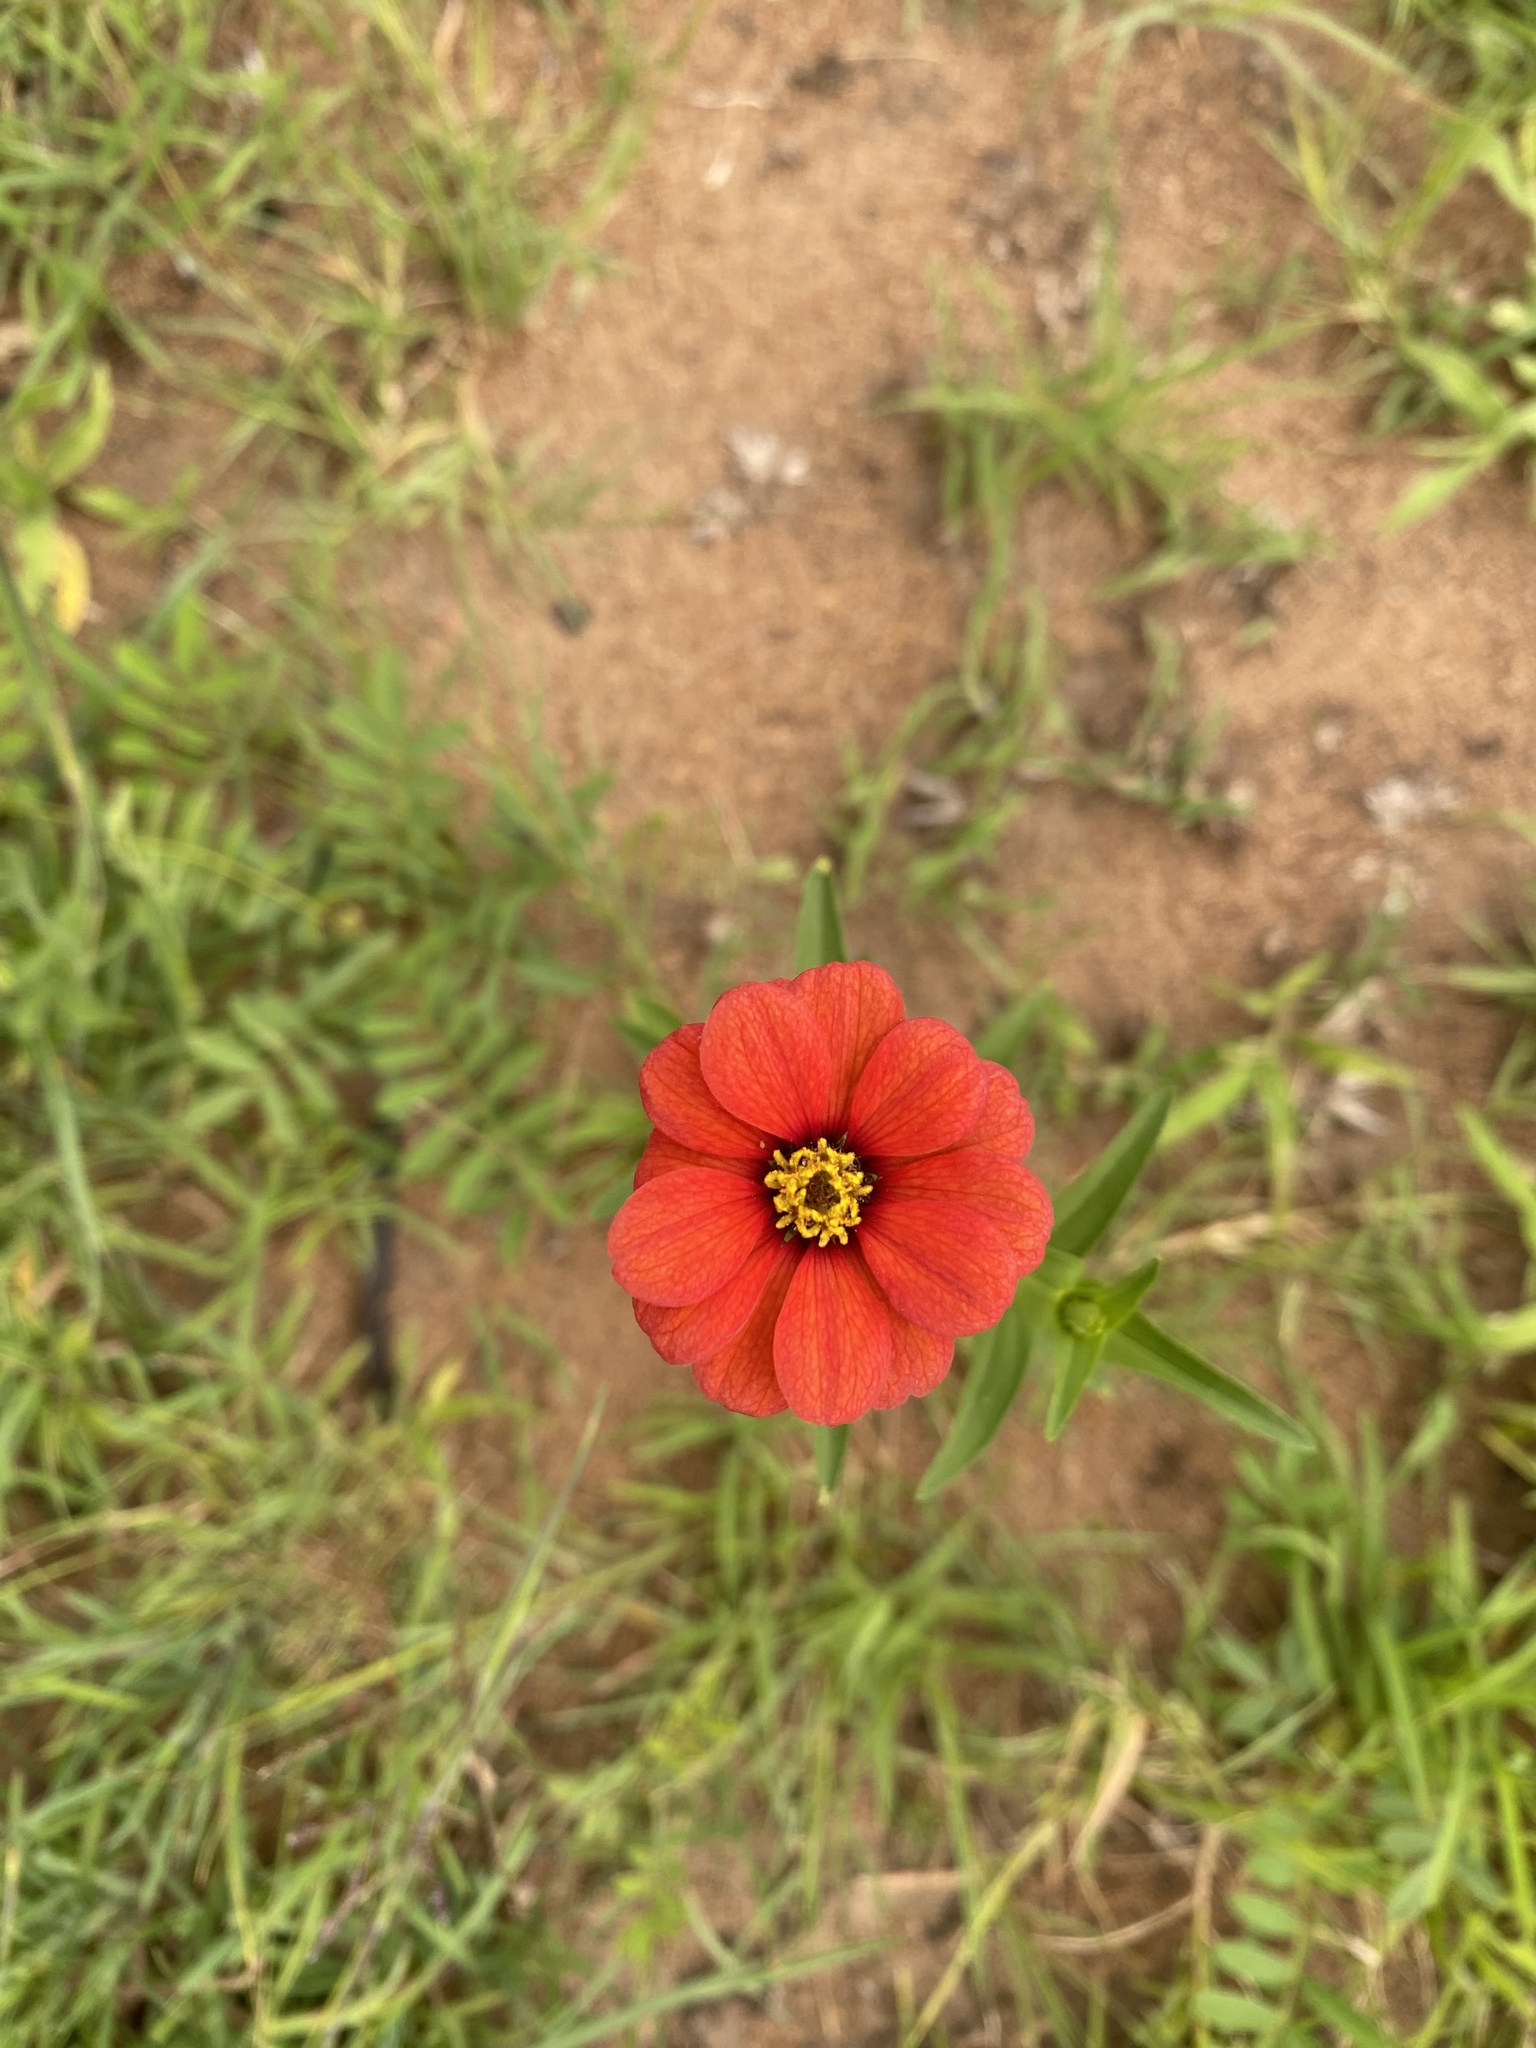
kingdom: Plantae
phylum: Tracheophyta
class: Magnoliopsida
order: Asterales
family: Asteraceae
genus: Zinnia
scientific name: Zinnia peruviana
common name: Peruvian zinnia
